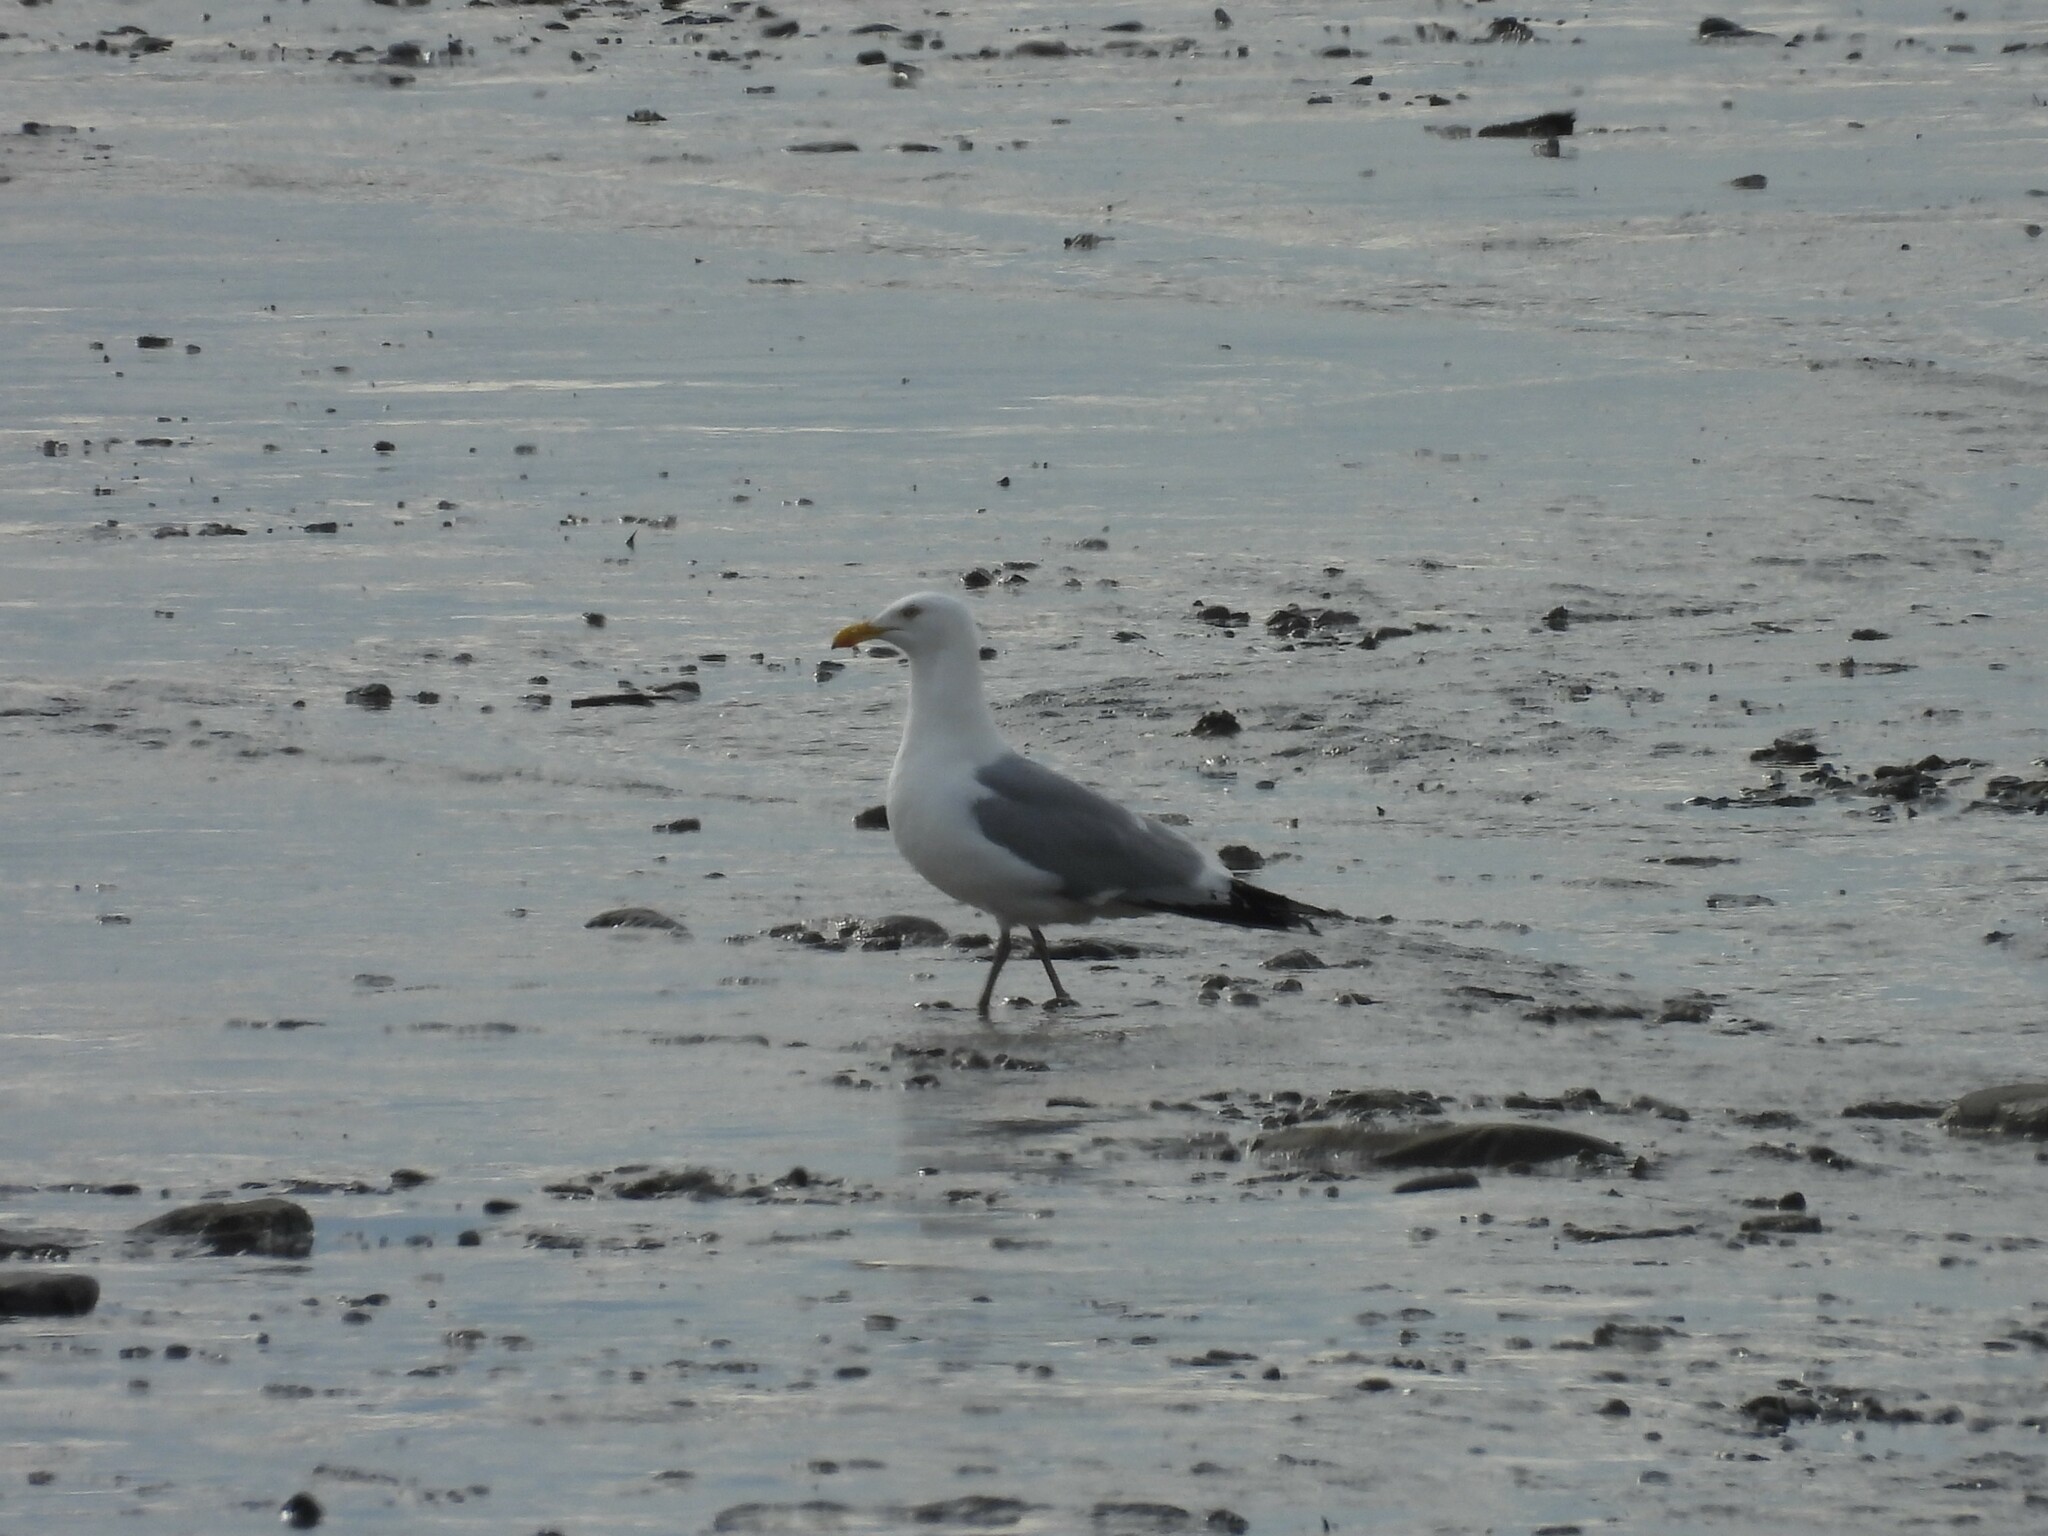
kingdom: Animalia
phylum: Chordata
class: Aves
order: Charadriiformes
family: Laridae
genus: Larus
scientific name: Larus argentatus
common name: Herring gull
